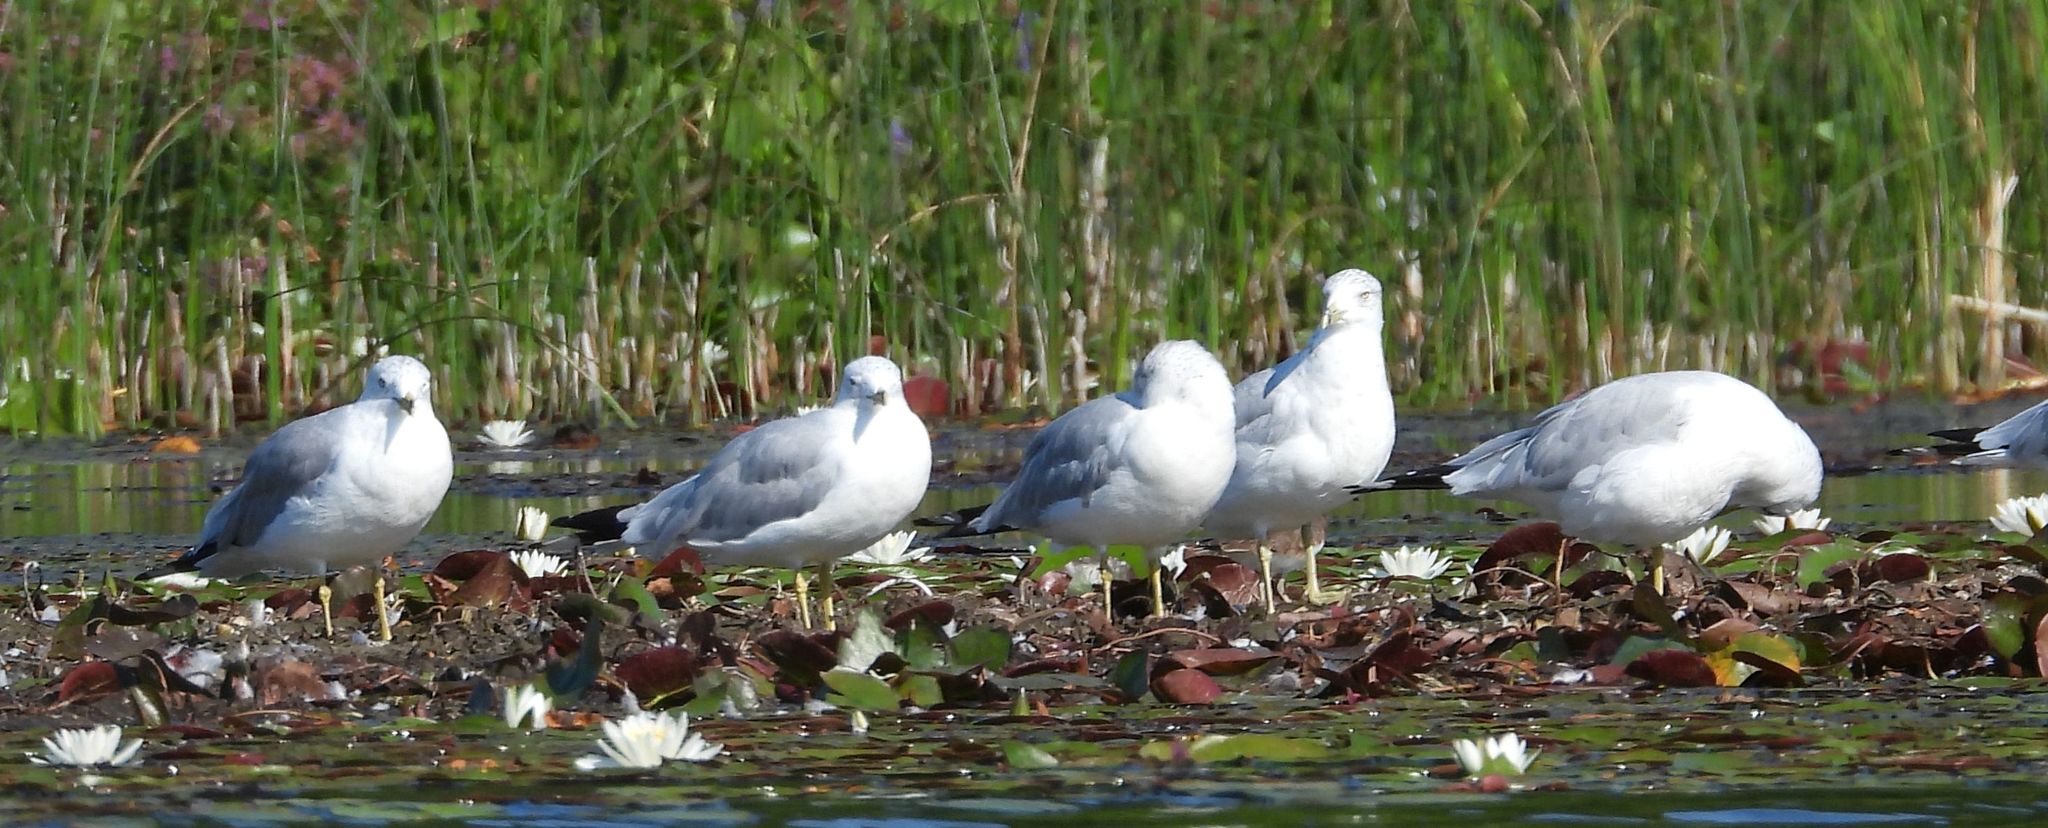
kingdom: Animalia
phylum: Chordata
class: Aves
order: Charadriiformes
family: Laridae
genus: Larus
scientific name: Larus delawarensis
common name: Ring-billed gull
